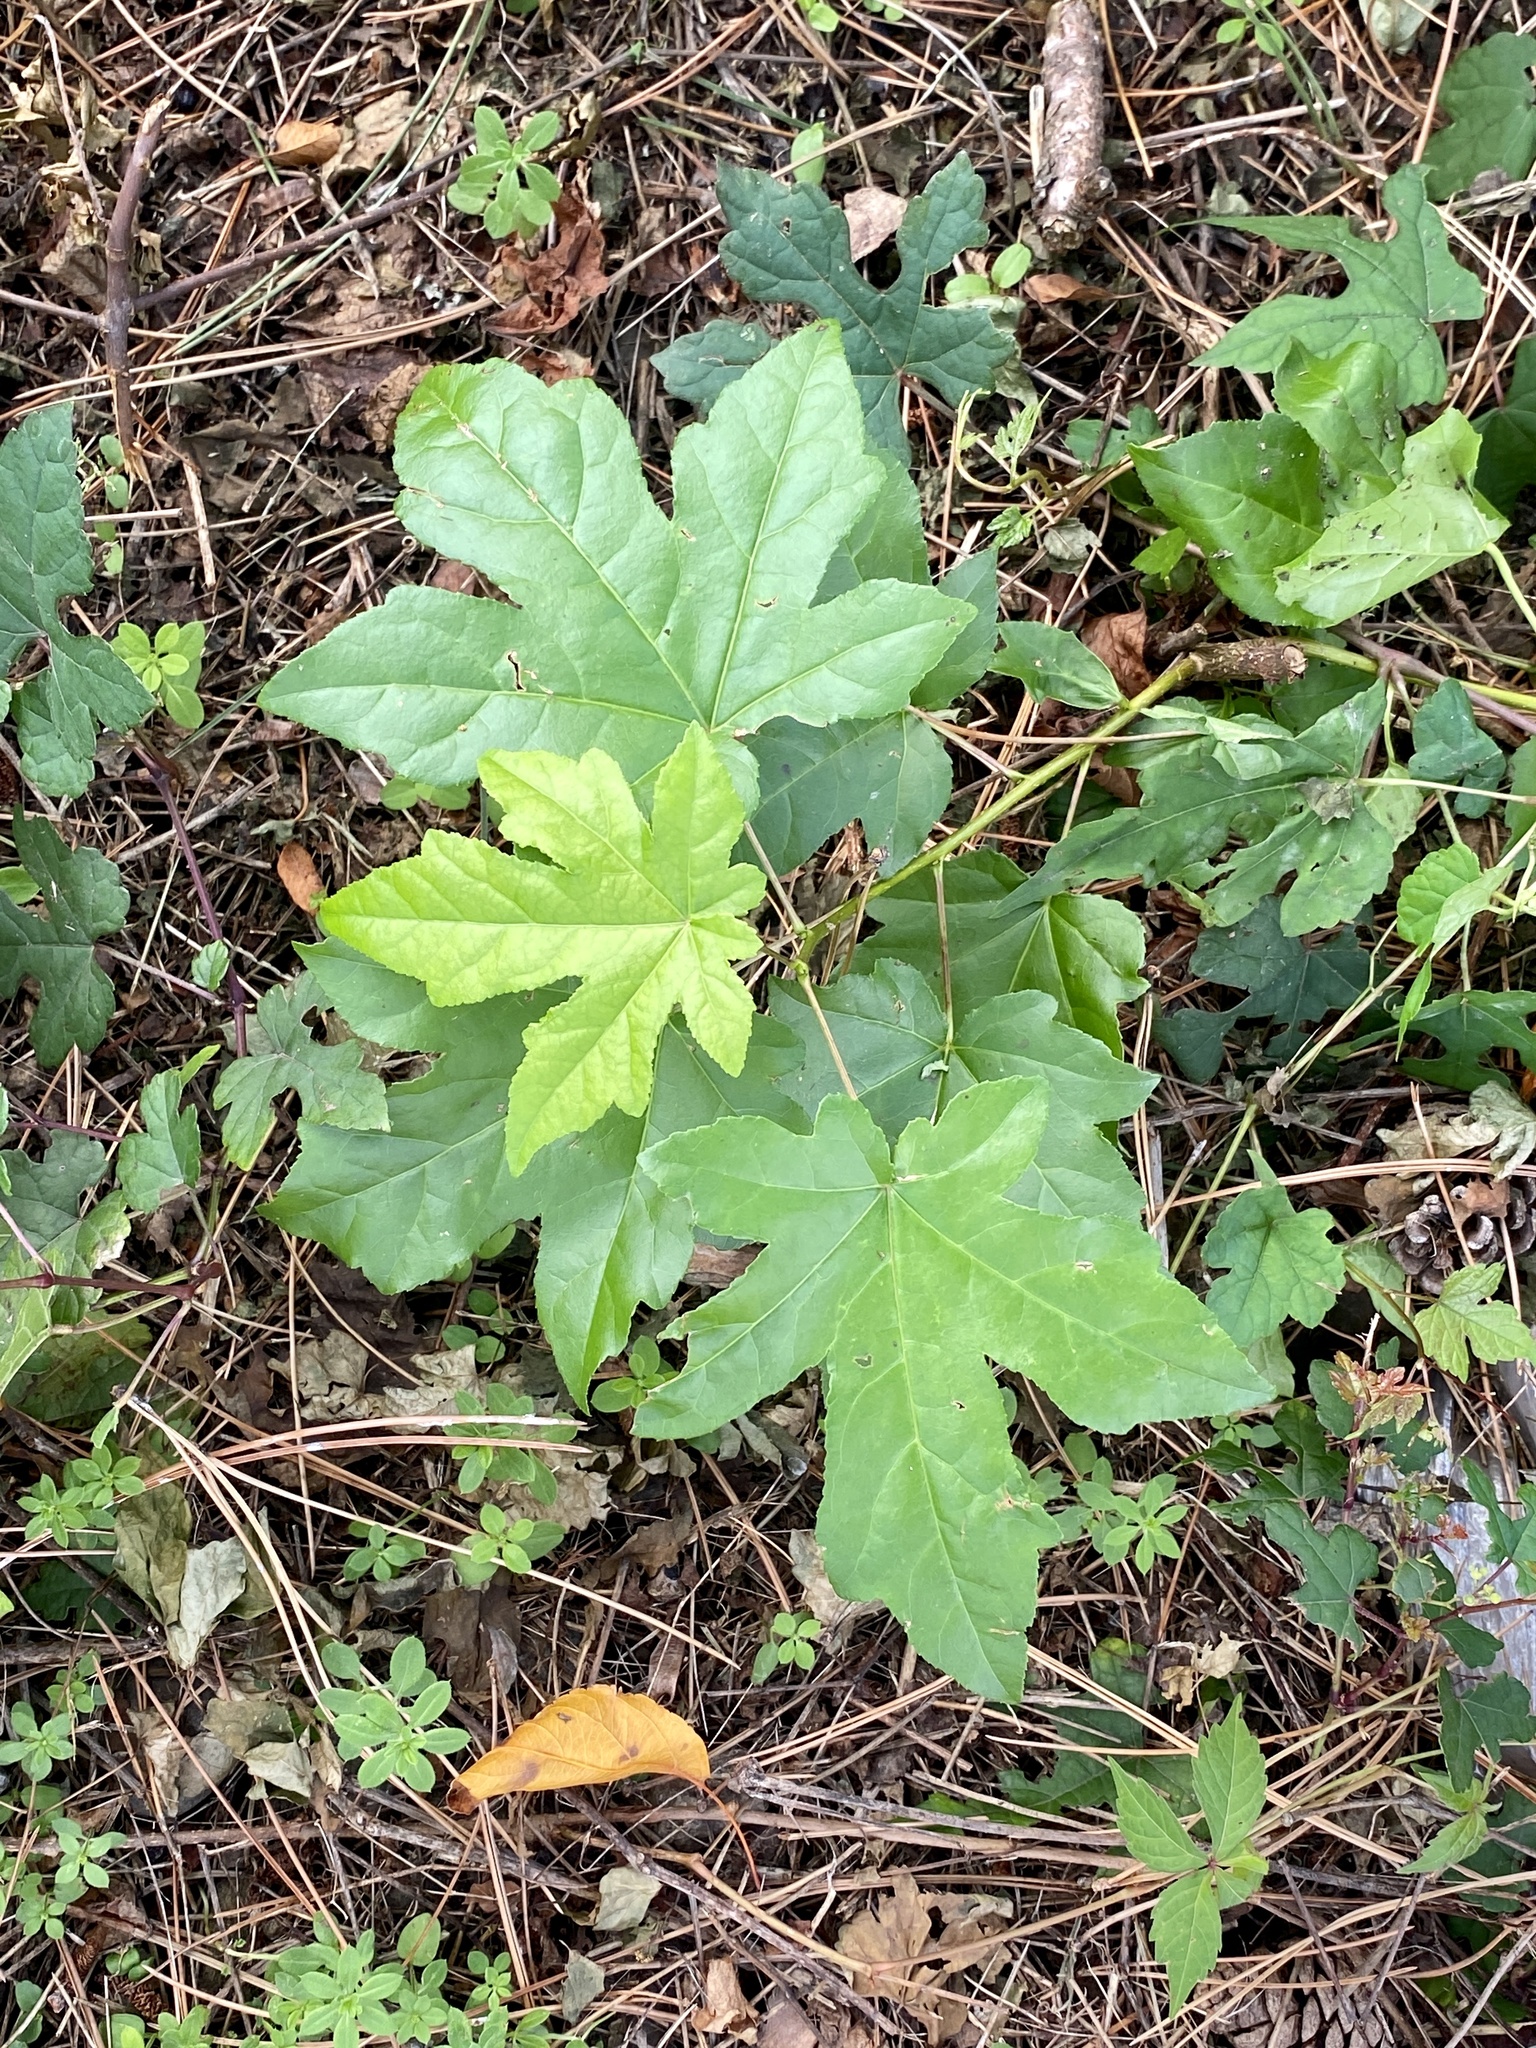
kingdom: Plantae
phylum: Tracheophyta
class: Magnoliopsida
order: Saxifragales
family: Altingiaceae
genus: Liquidambar
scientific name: Liquidambar styraciflua
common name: Sweet gum
